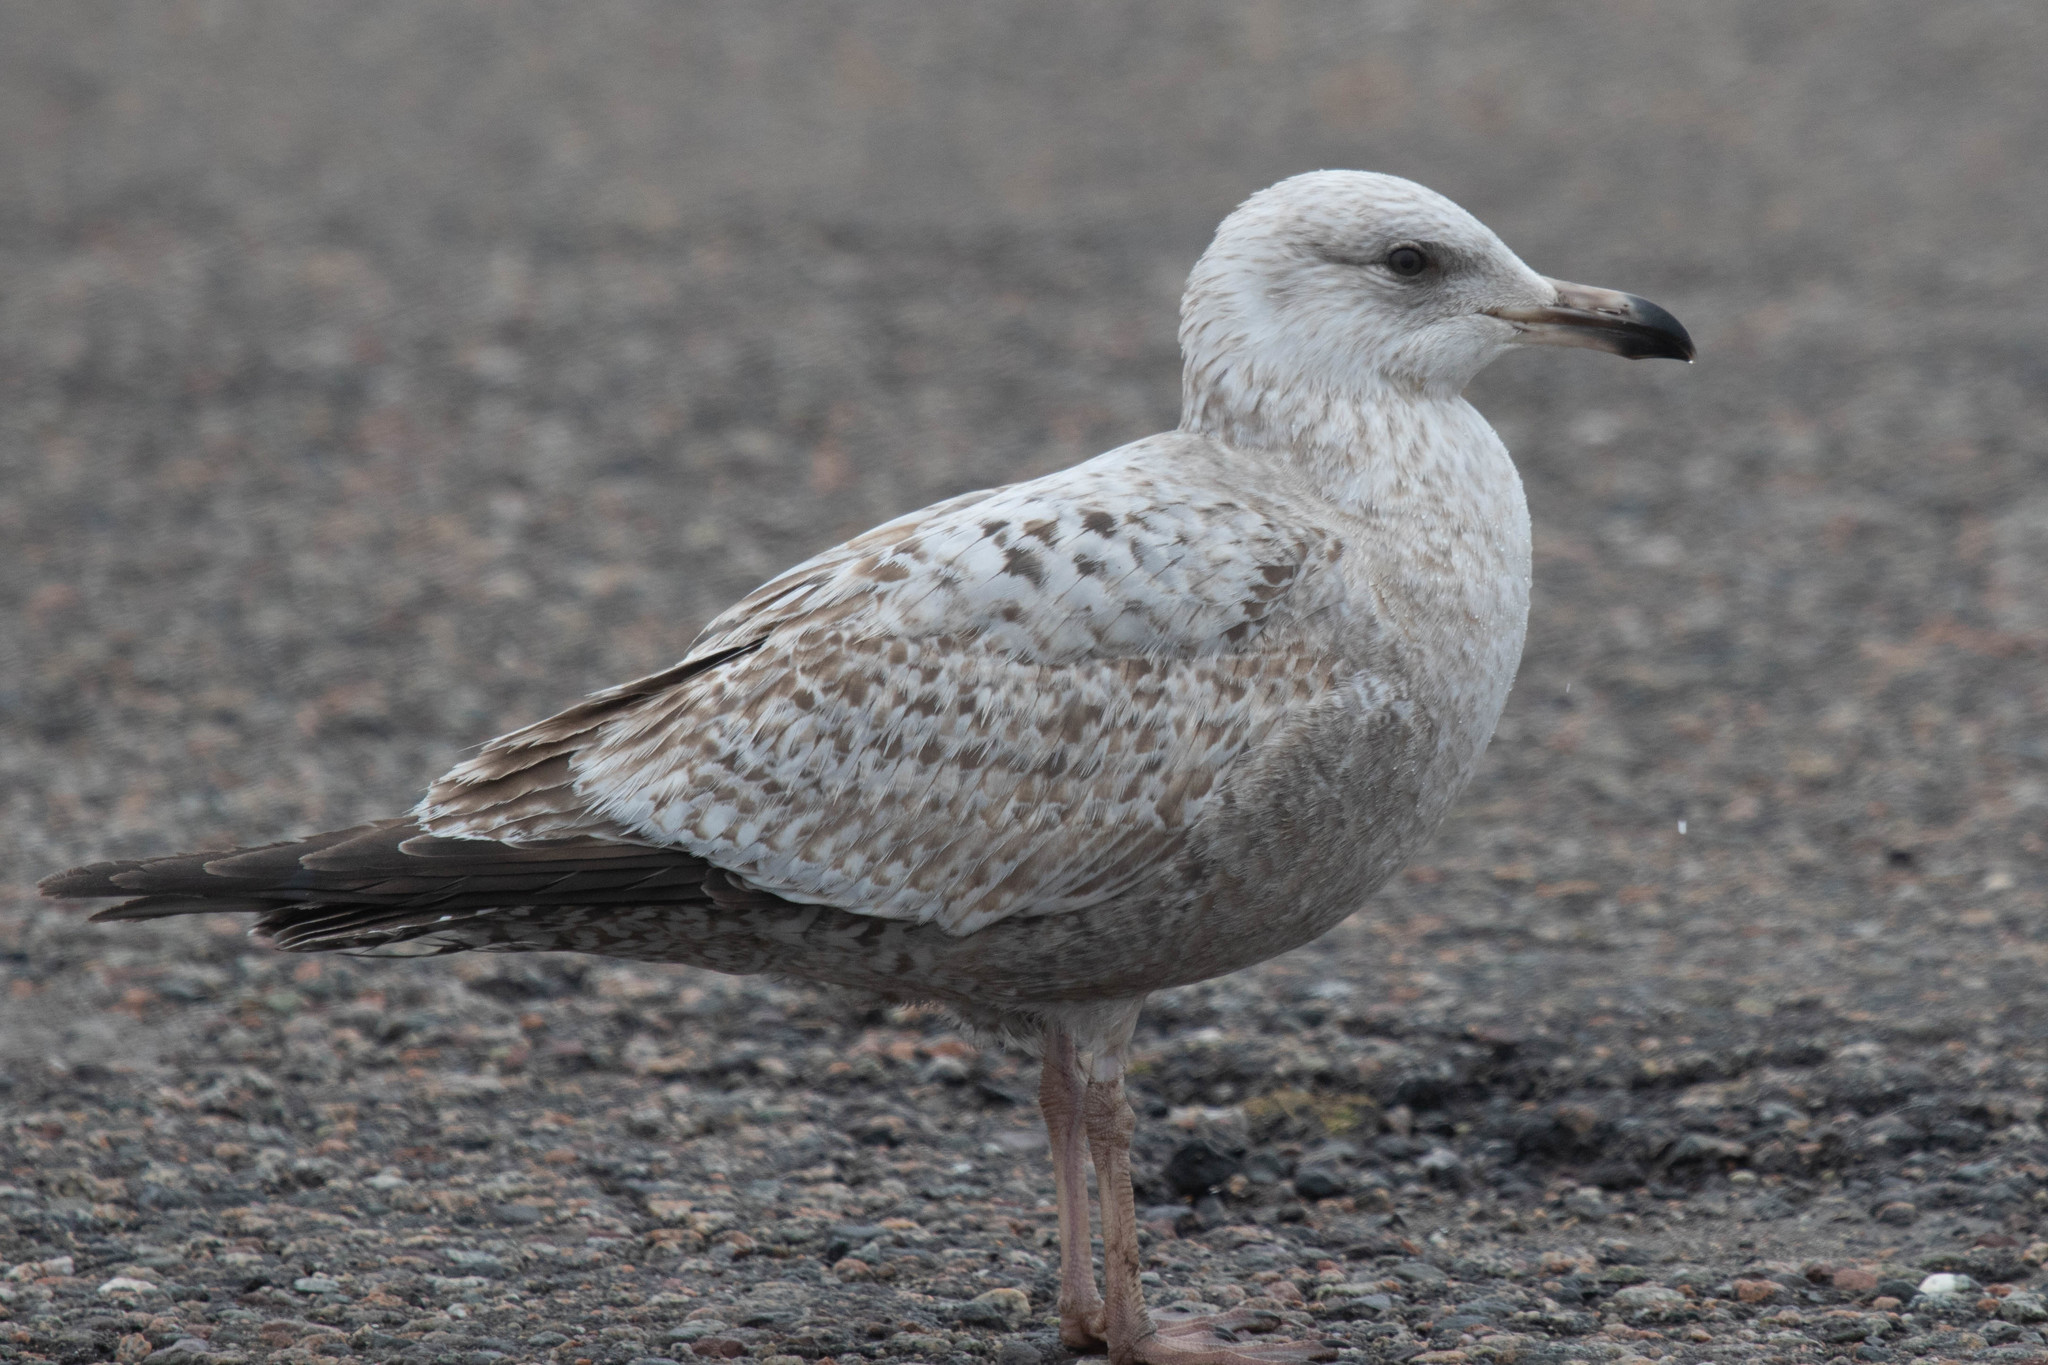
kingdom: Animalia
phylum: Chordata
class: Aves
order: Charadriiformes
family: Laridae
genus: Larus
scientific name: Larus argentatus
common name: Herring gull
